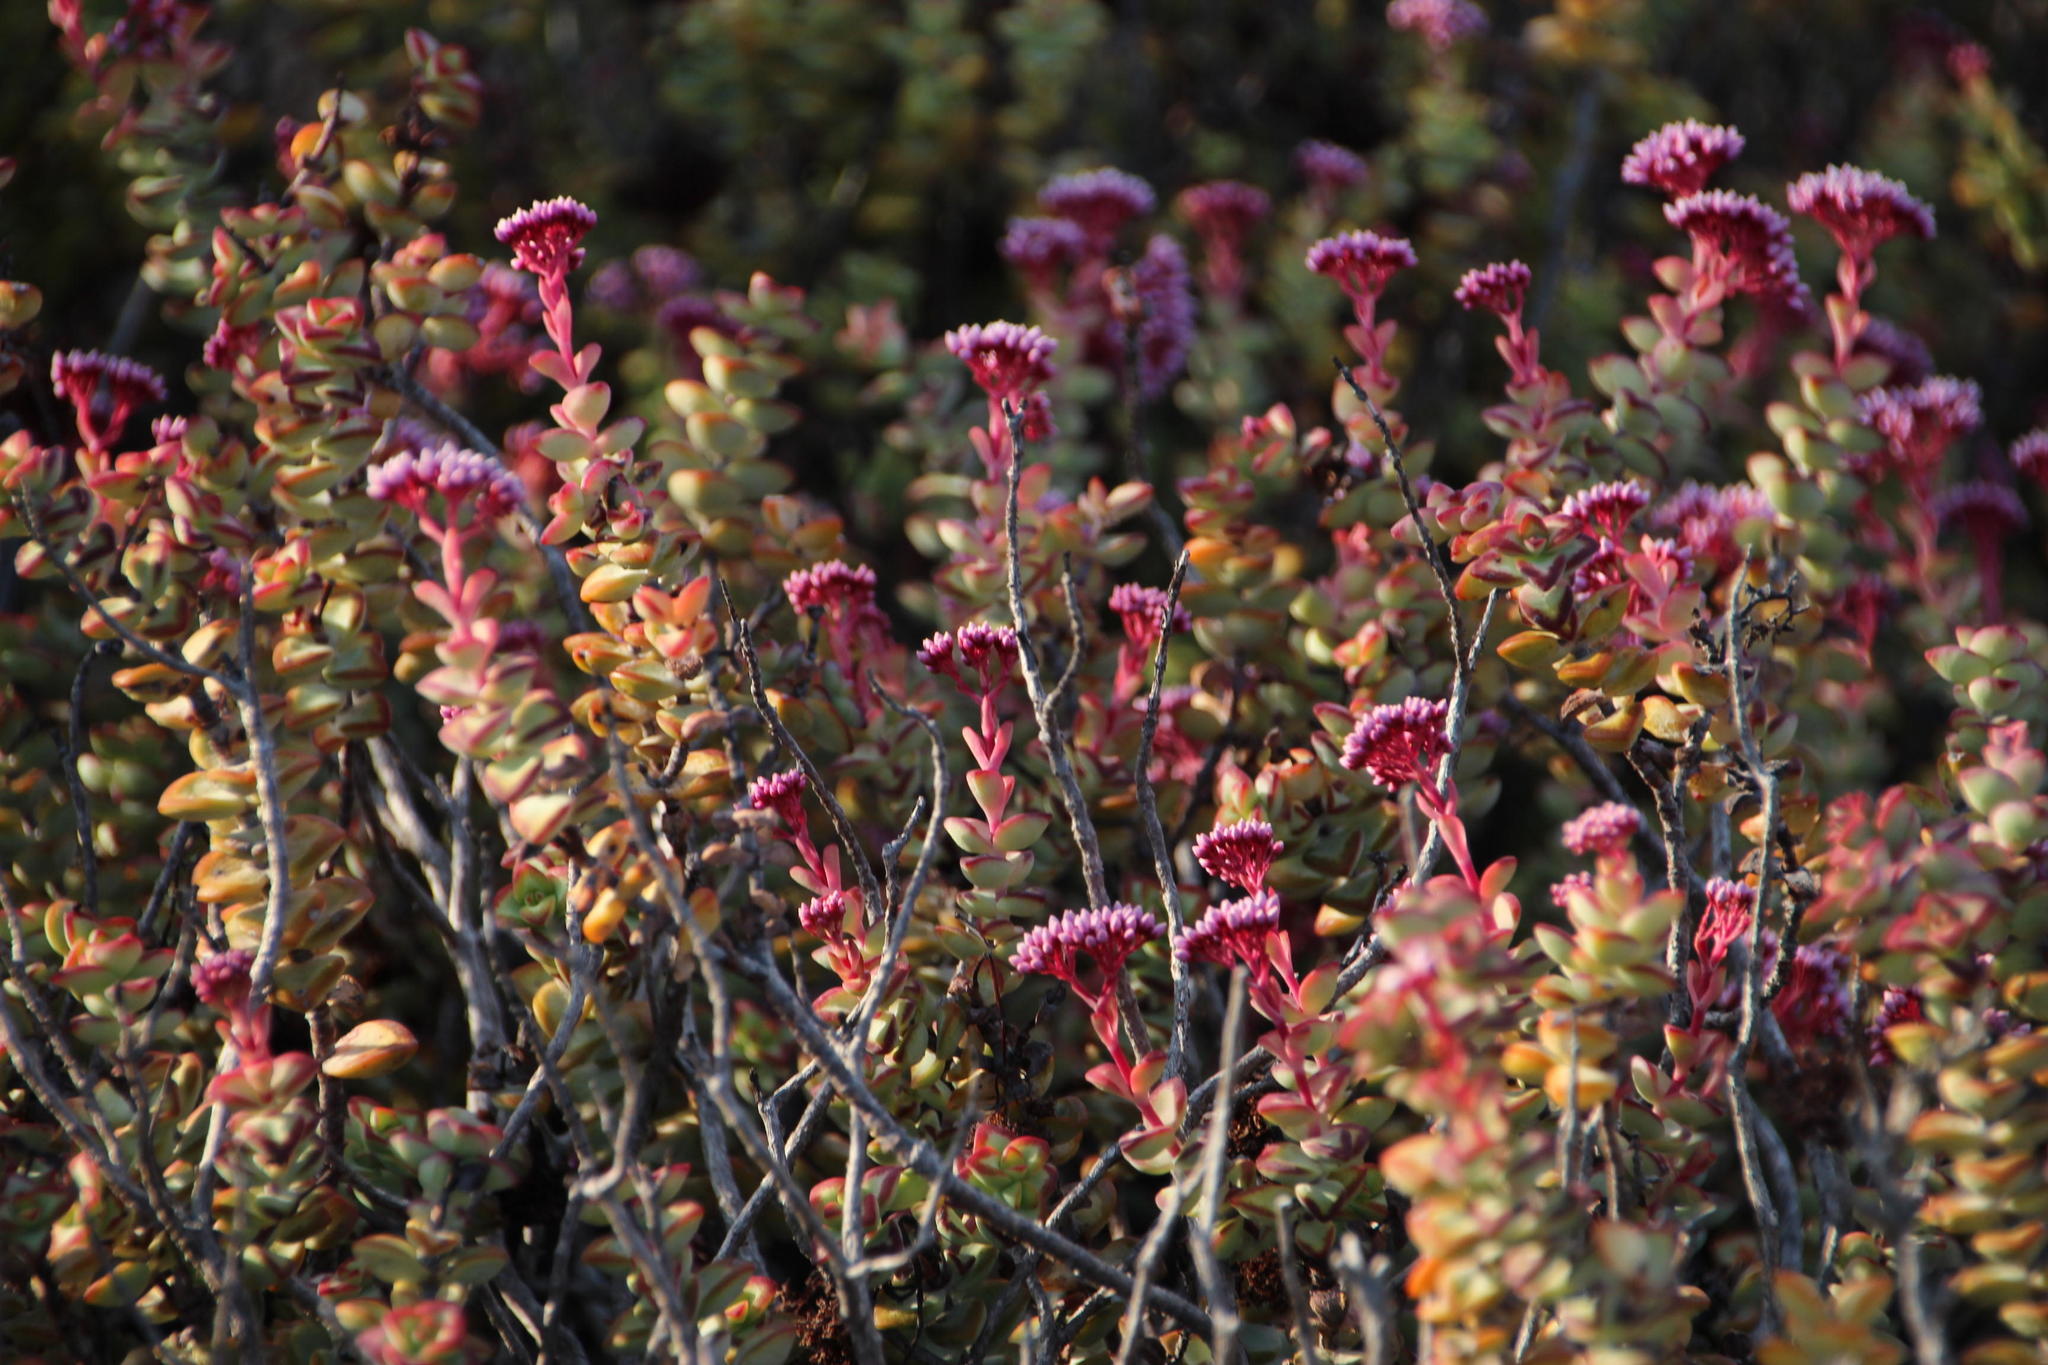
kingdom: Plantae
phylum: Tracheophyta
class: Magnoliopsida
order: Saxifragales
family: Crassulaceae
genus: Crassula
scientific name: Crassula rupestris
